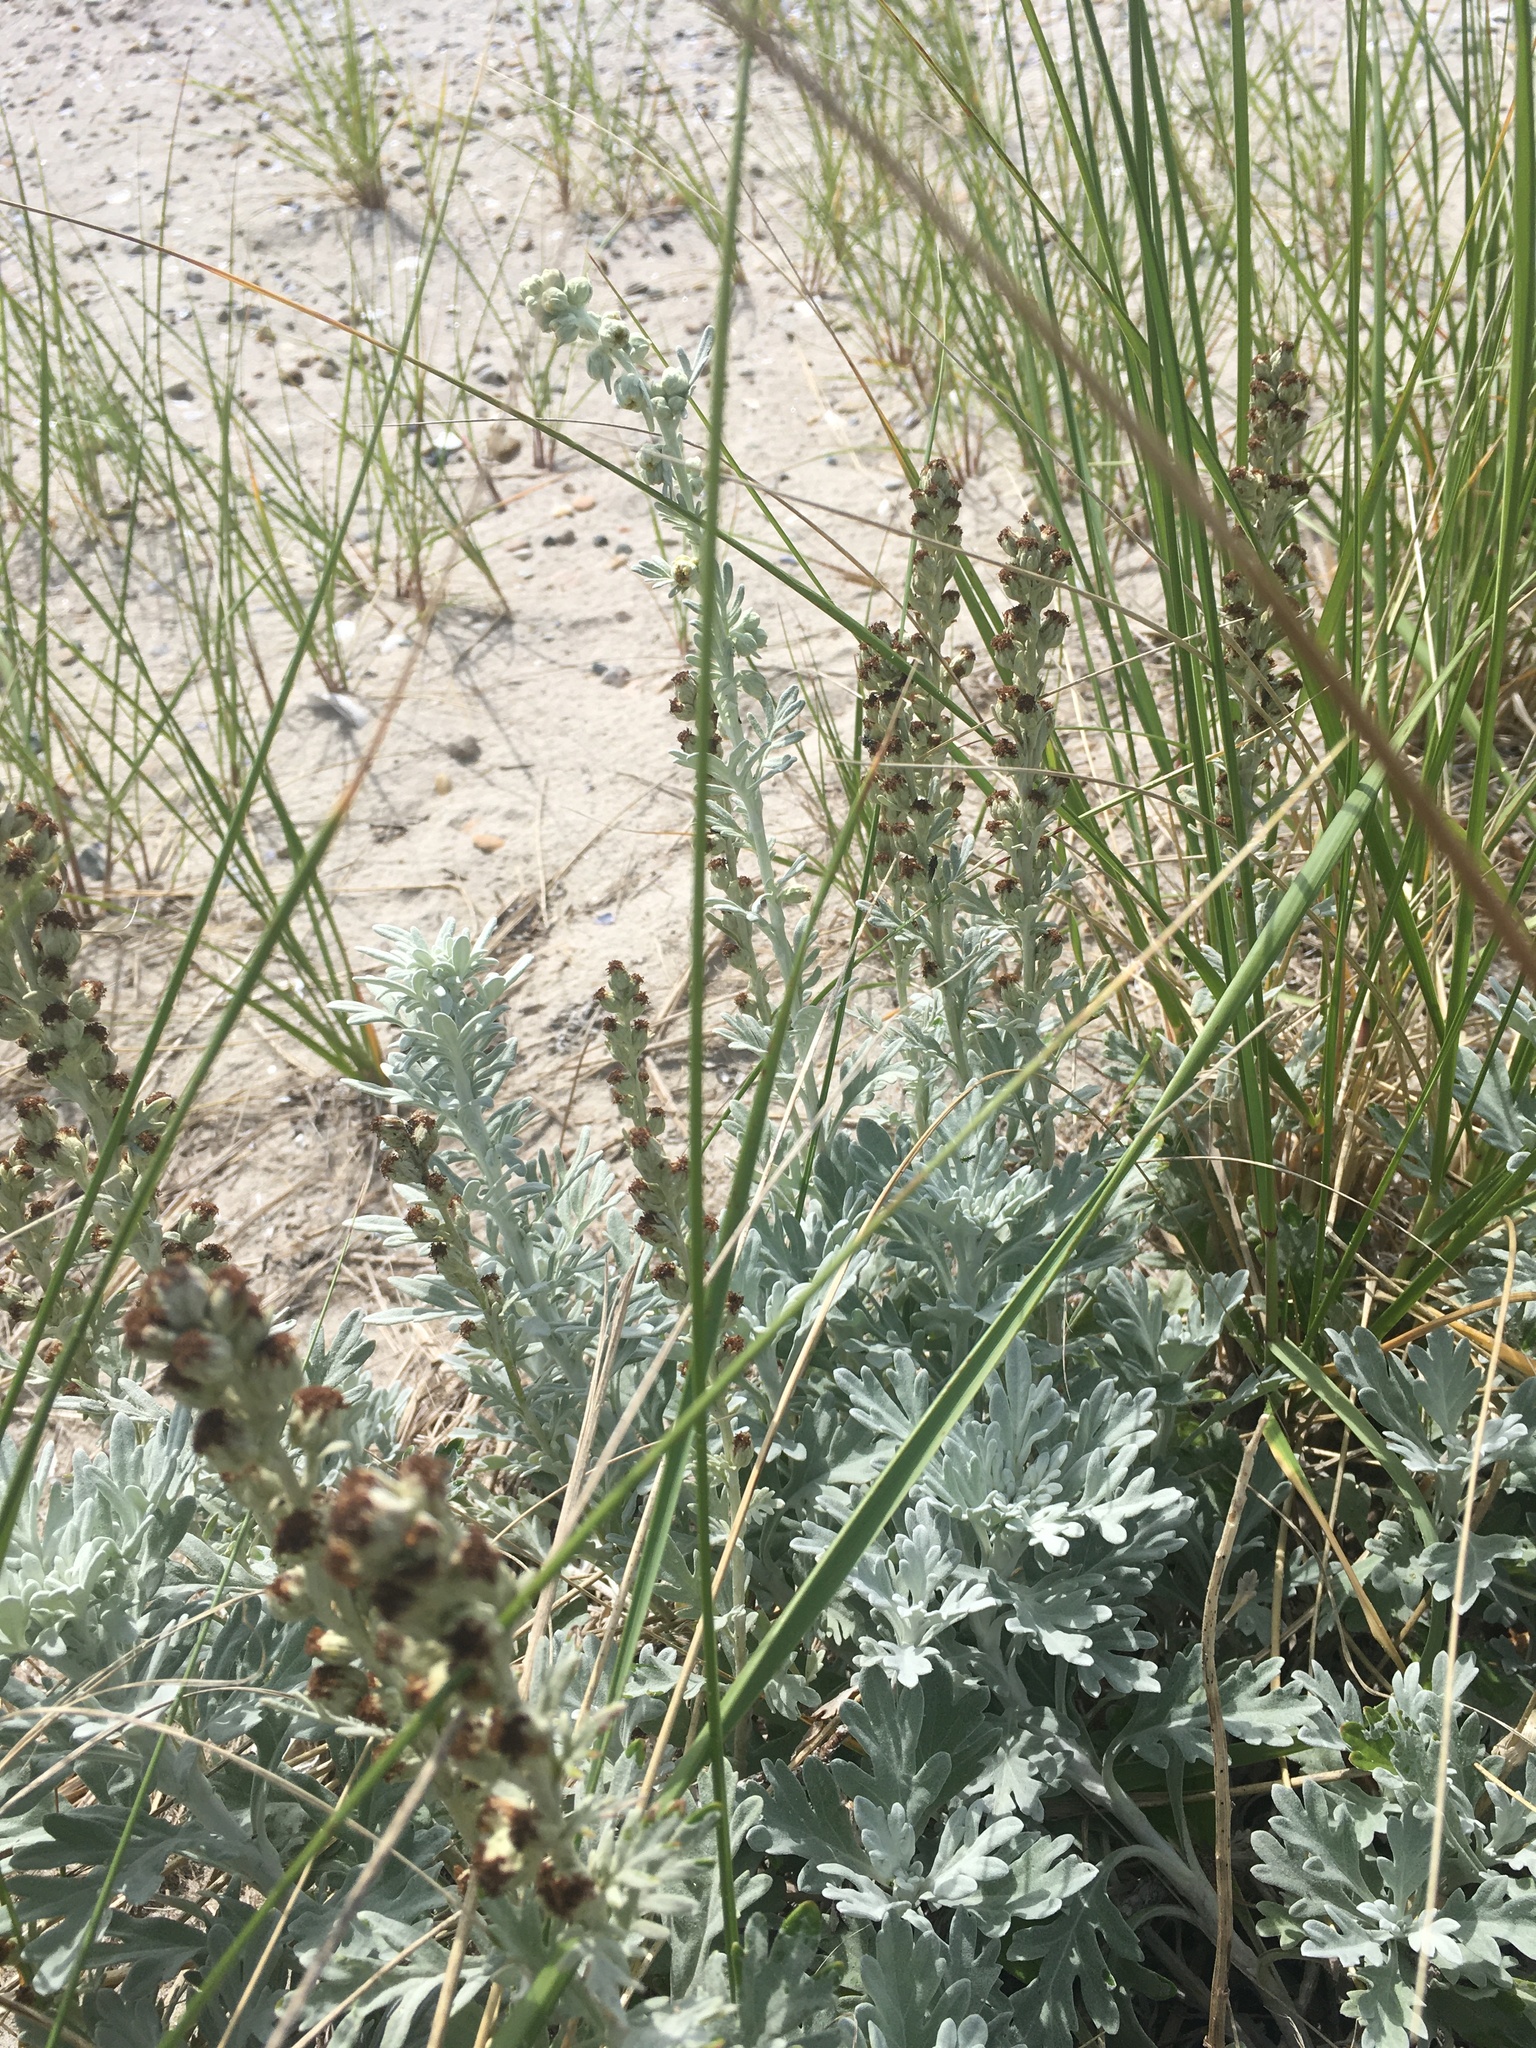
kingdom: Plantae
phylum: Tracheophyta
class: Magnoliopsida
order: Asterales
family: Asteraceae
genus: Artemisia
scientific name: Artemisia stelleriana
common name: Beach wormwood
